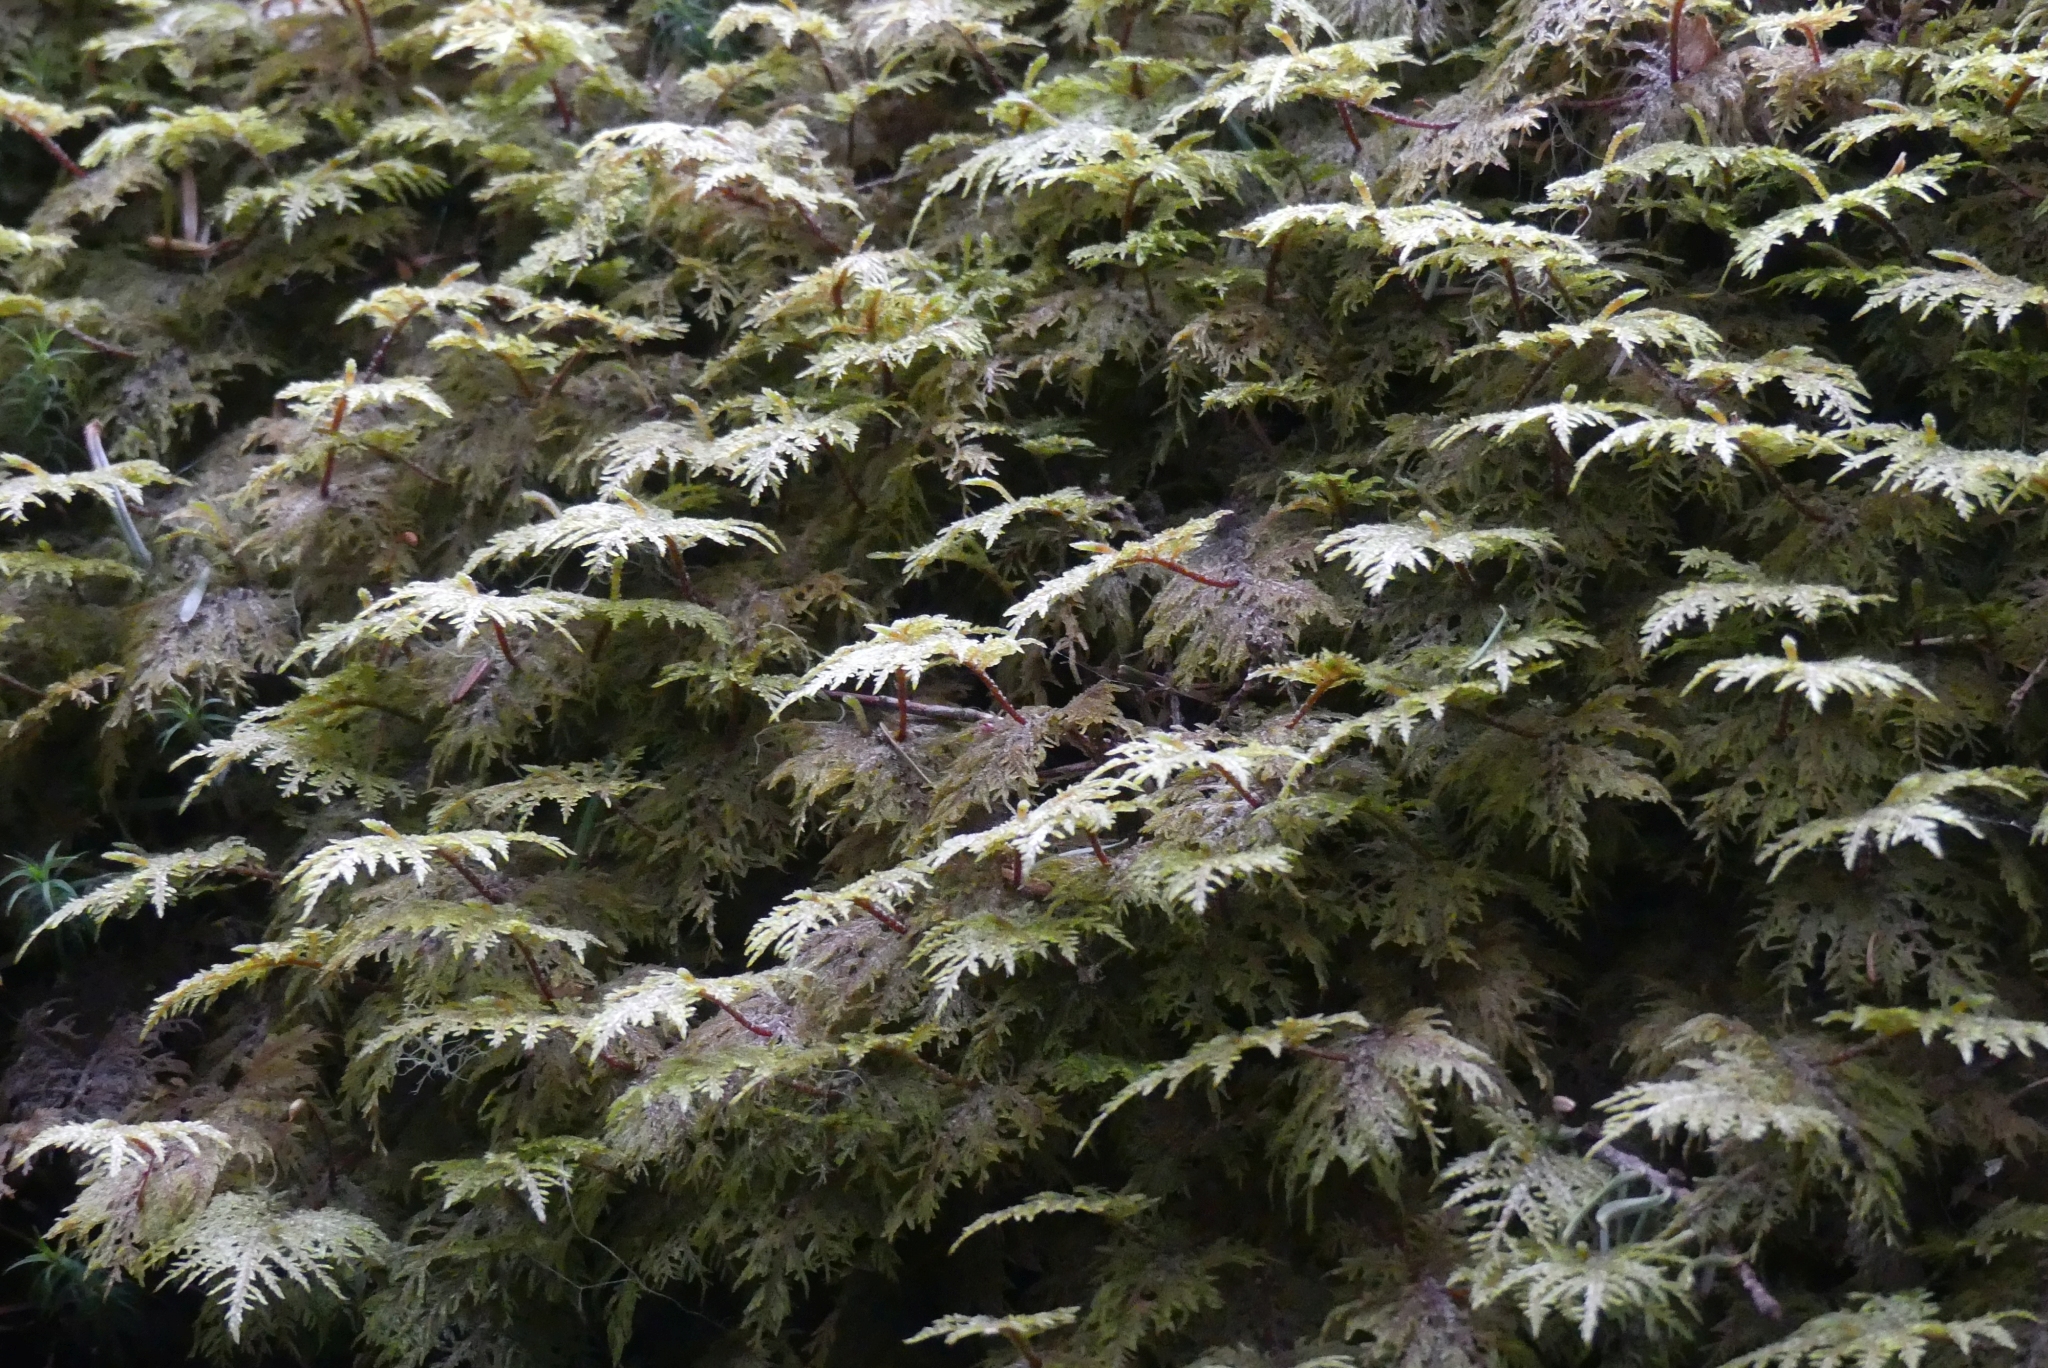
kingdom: Plantae
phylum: Bryophyta
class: Bryopsida
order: Hypnales
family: Hylocomiaceae
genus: Hylocomium
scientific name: Hylocomium splendens
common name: Stairstep moss
